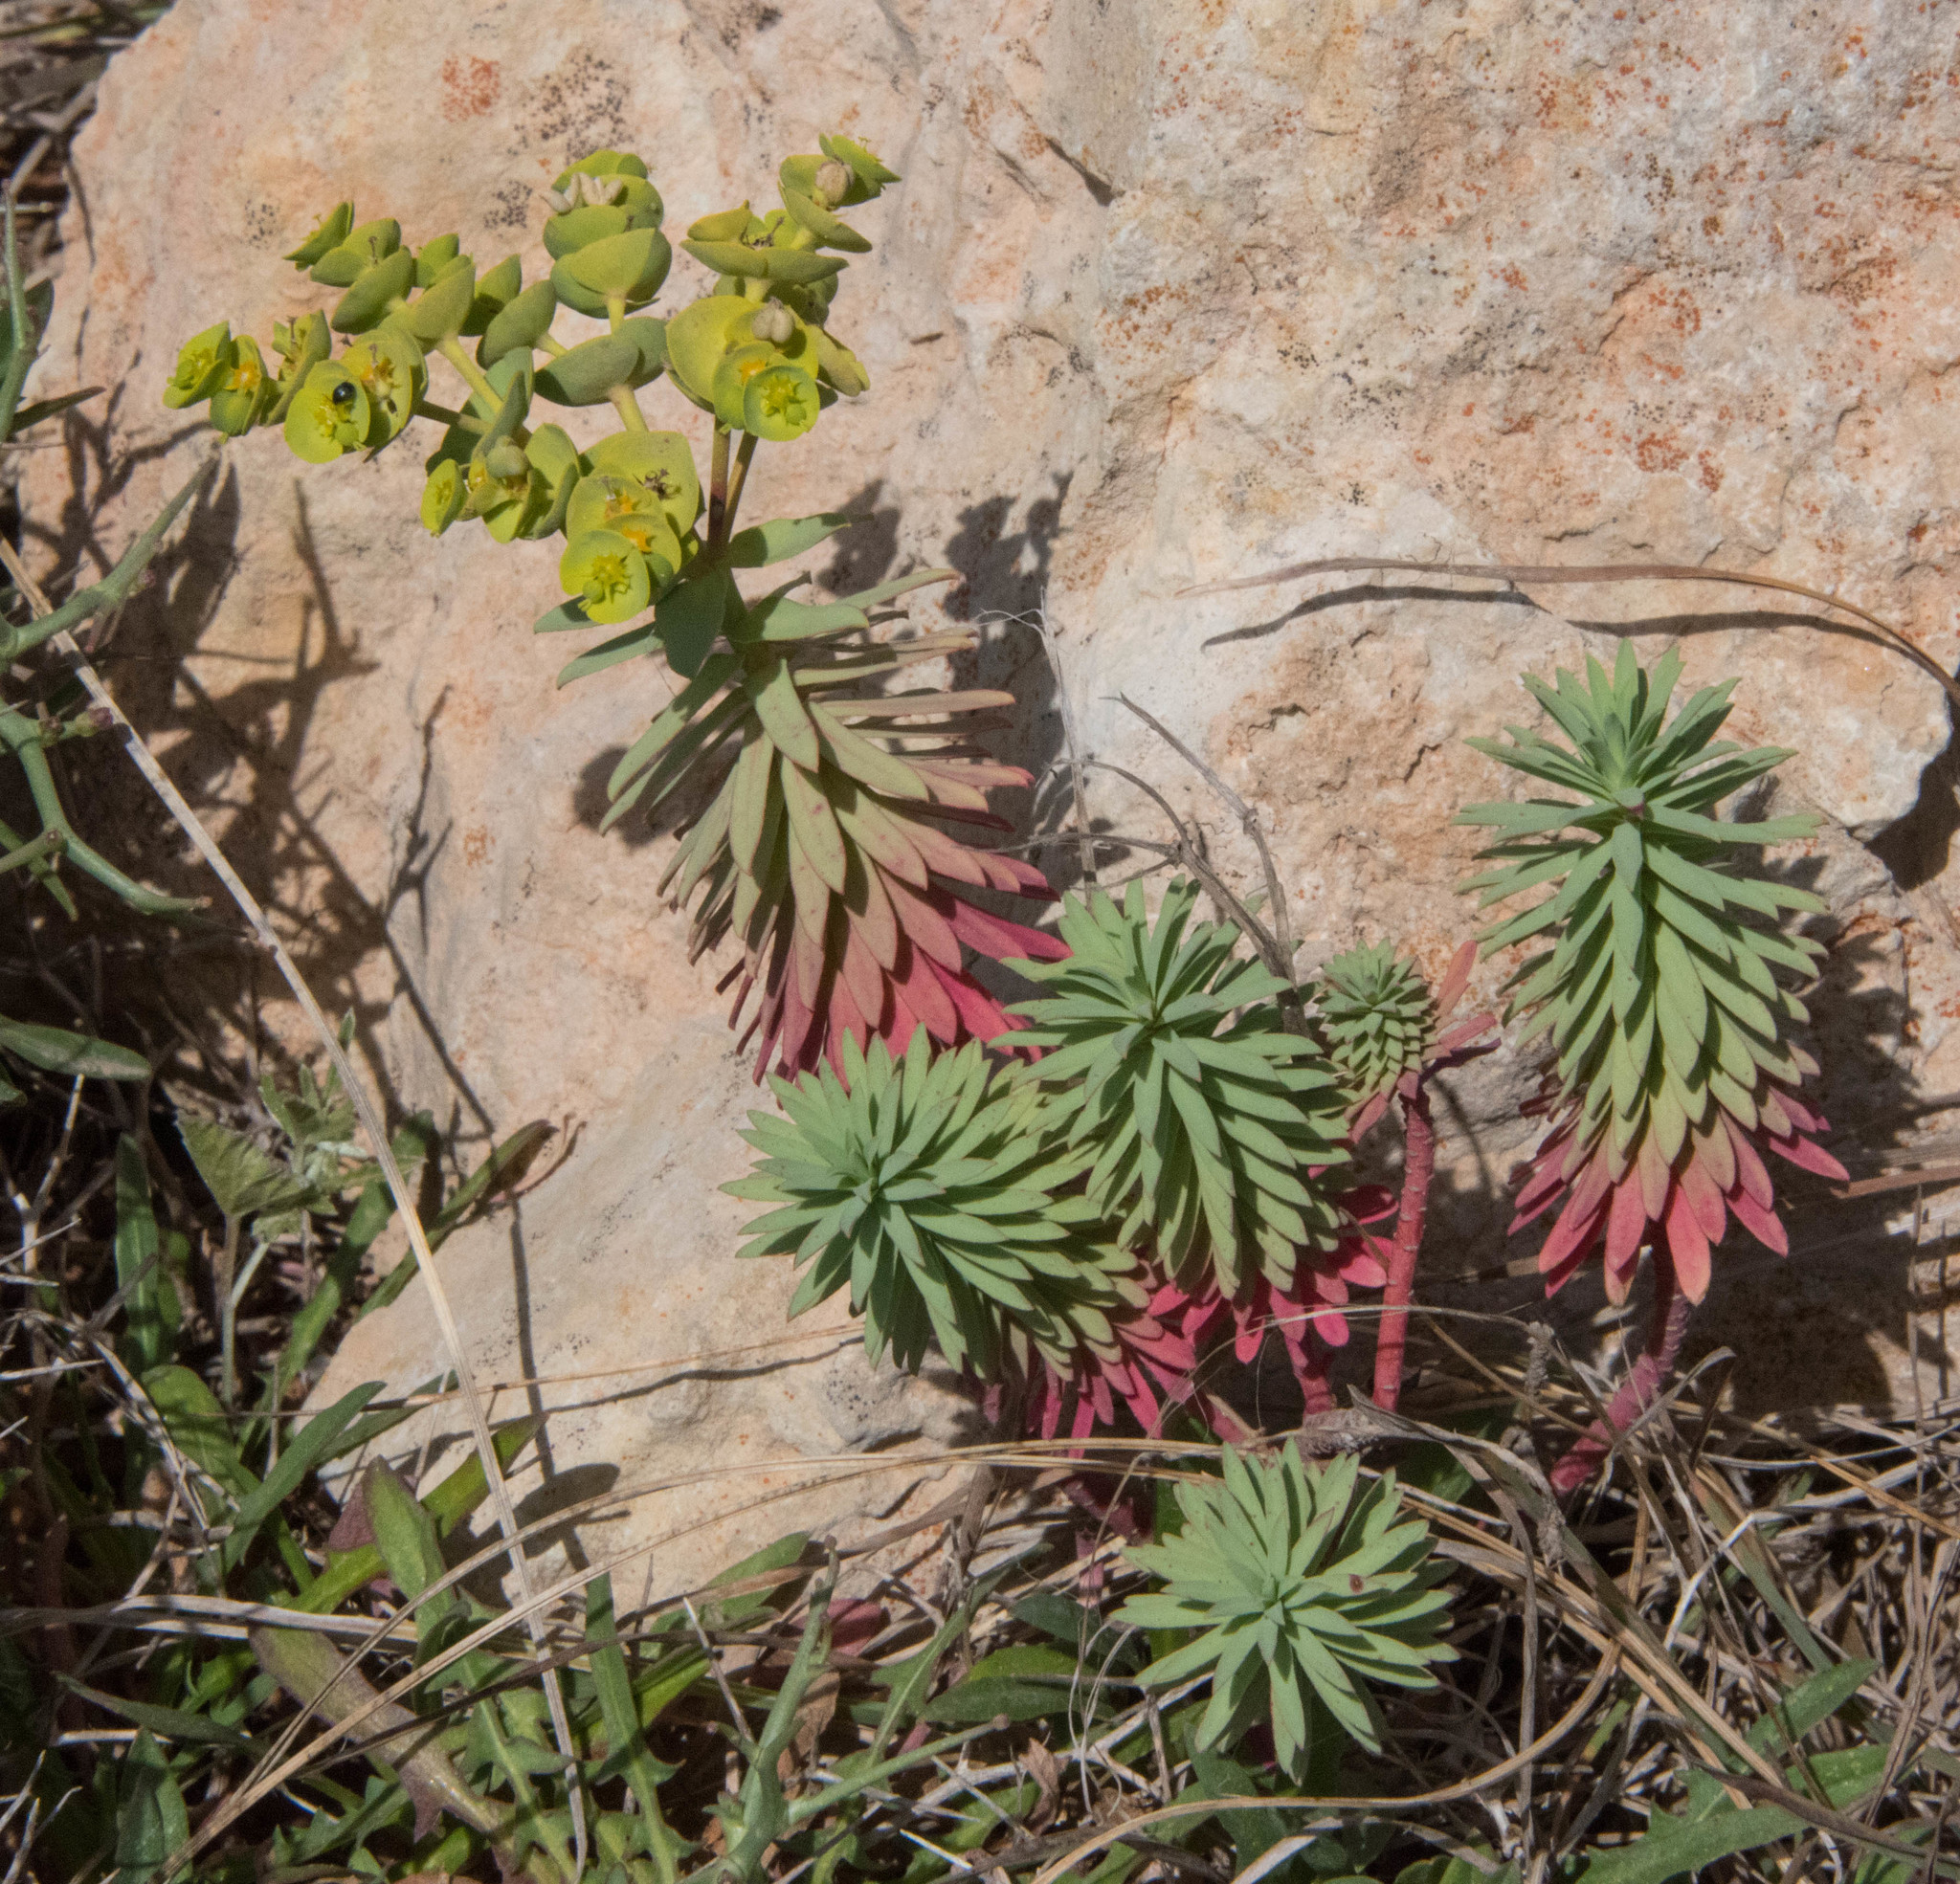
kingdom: Plantae
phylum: Tracheophyta
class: Magnoliopsida
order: Malpighiales
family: Euphorbiaceae
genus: Euphorbia
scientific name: Euphorbia segetalis
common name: Corn spurge
